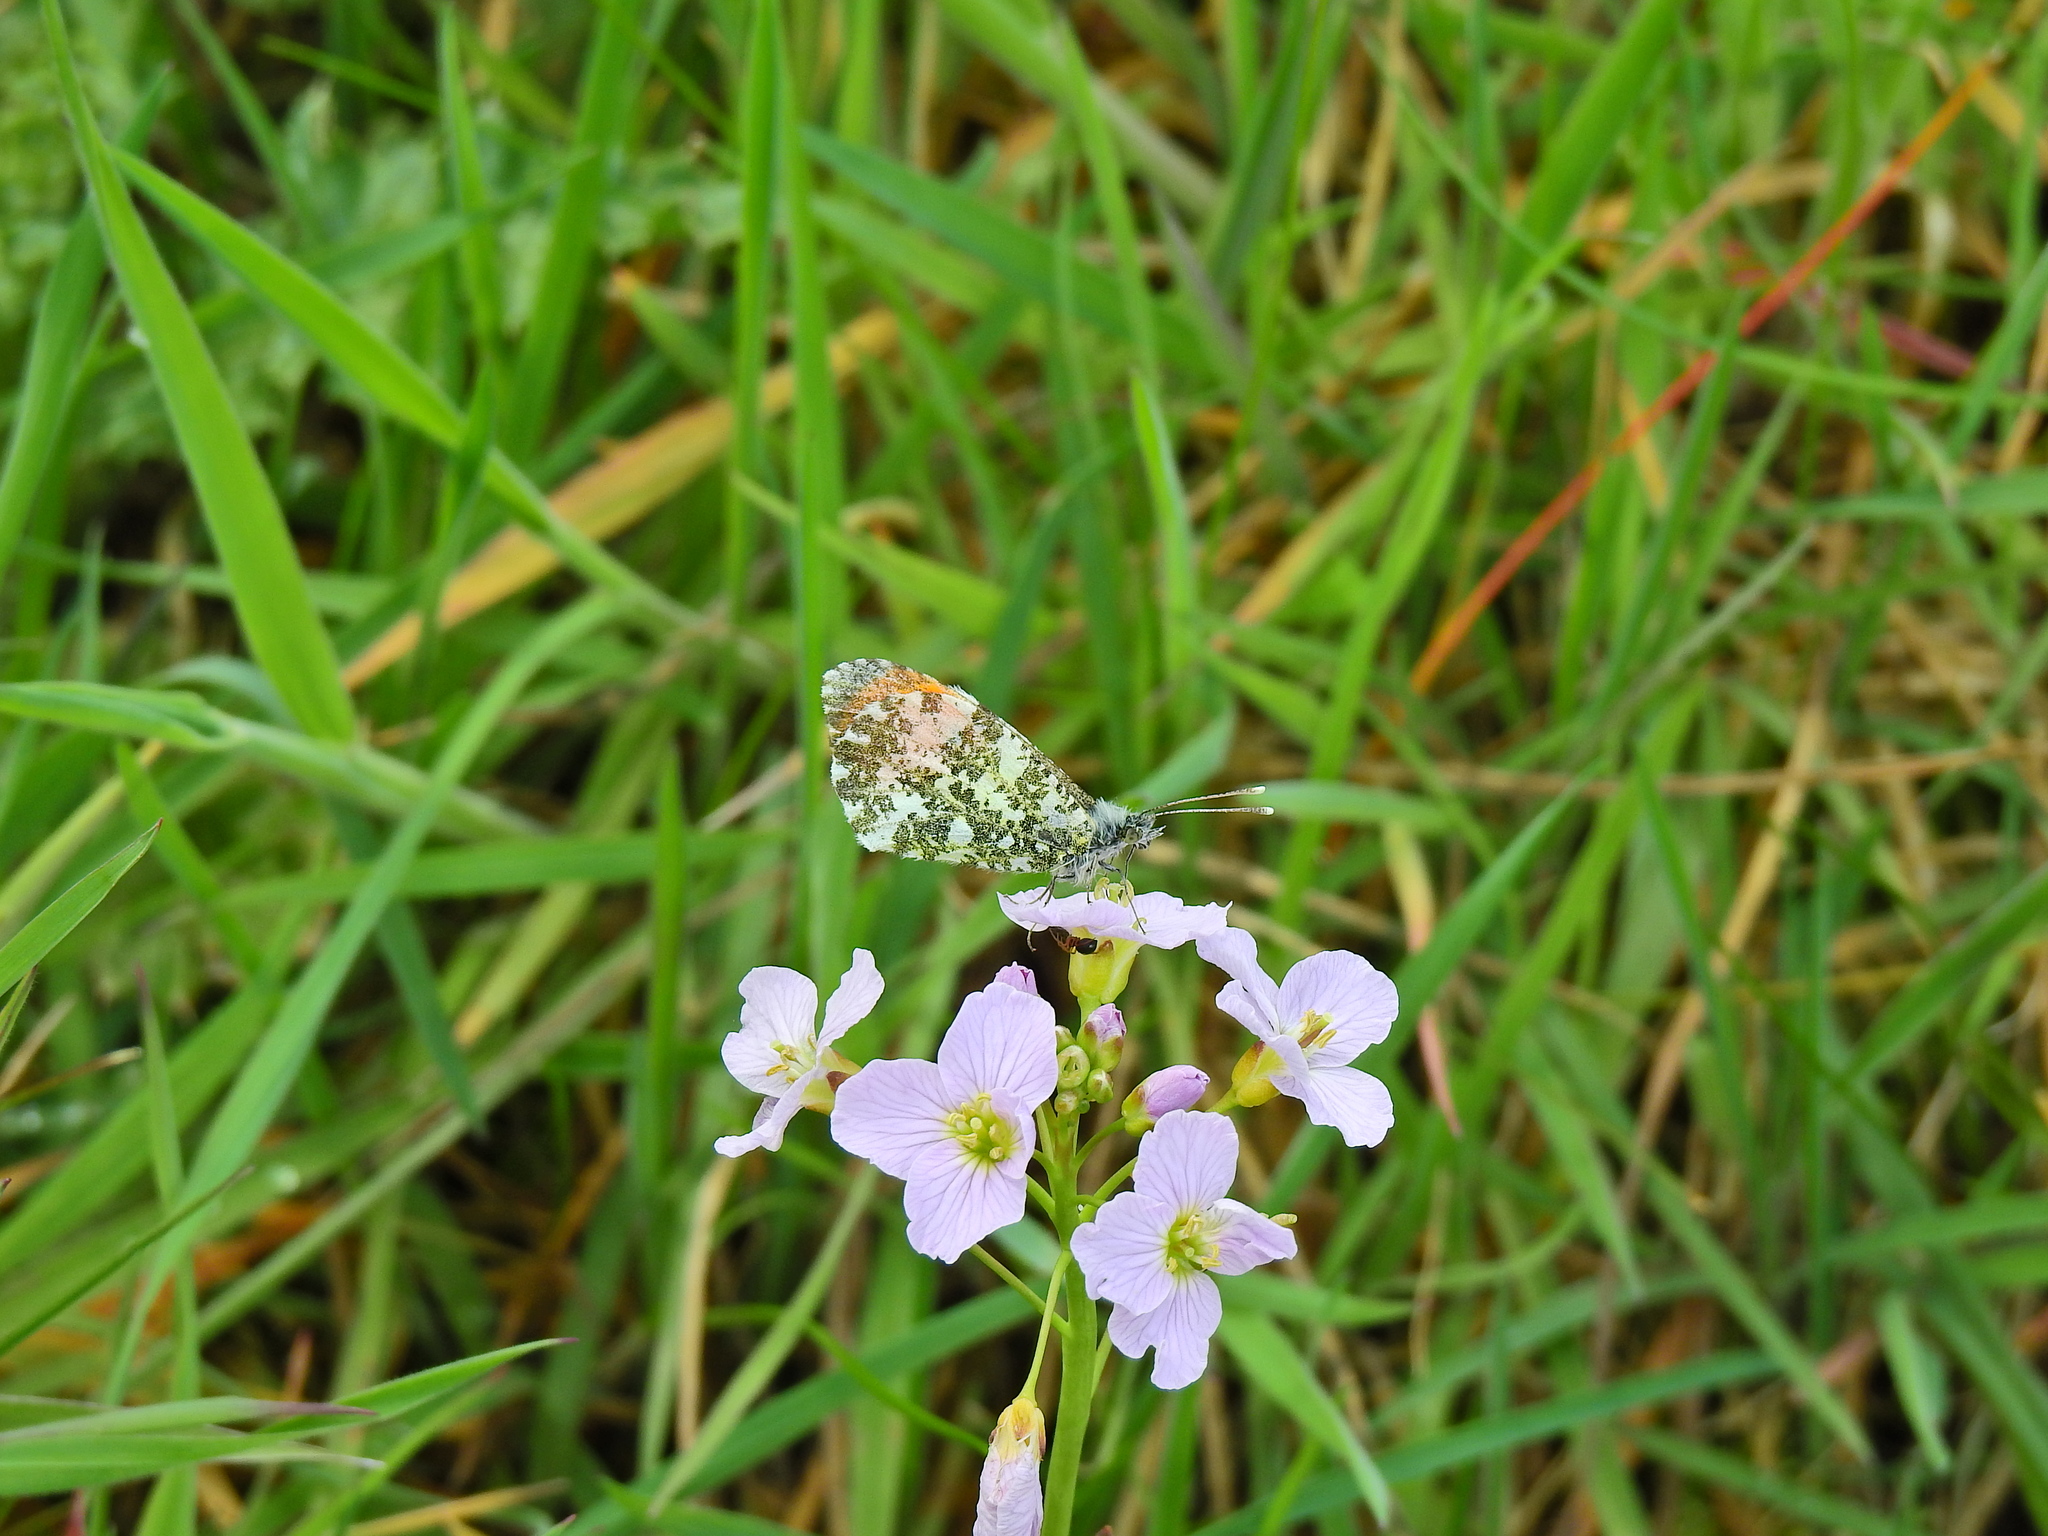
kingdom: Animalia
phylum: Arthropoda
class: Insecta
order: Lepidoptera
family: Pieridae
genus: Anthocharis
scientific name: Anthocharis cardamines
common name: Orange-tip
